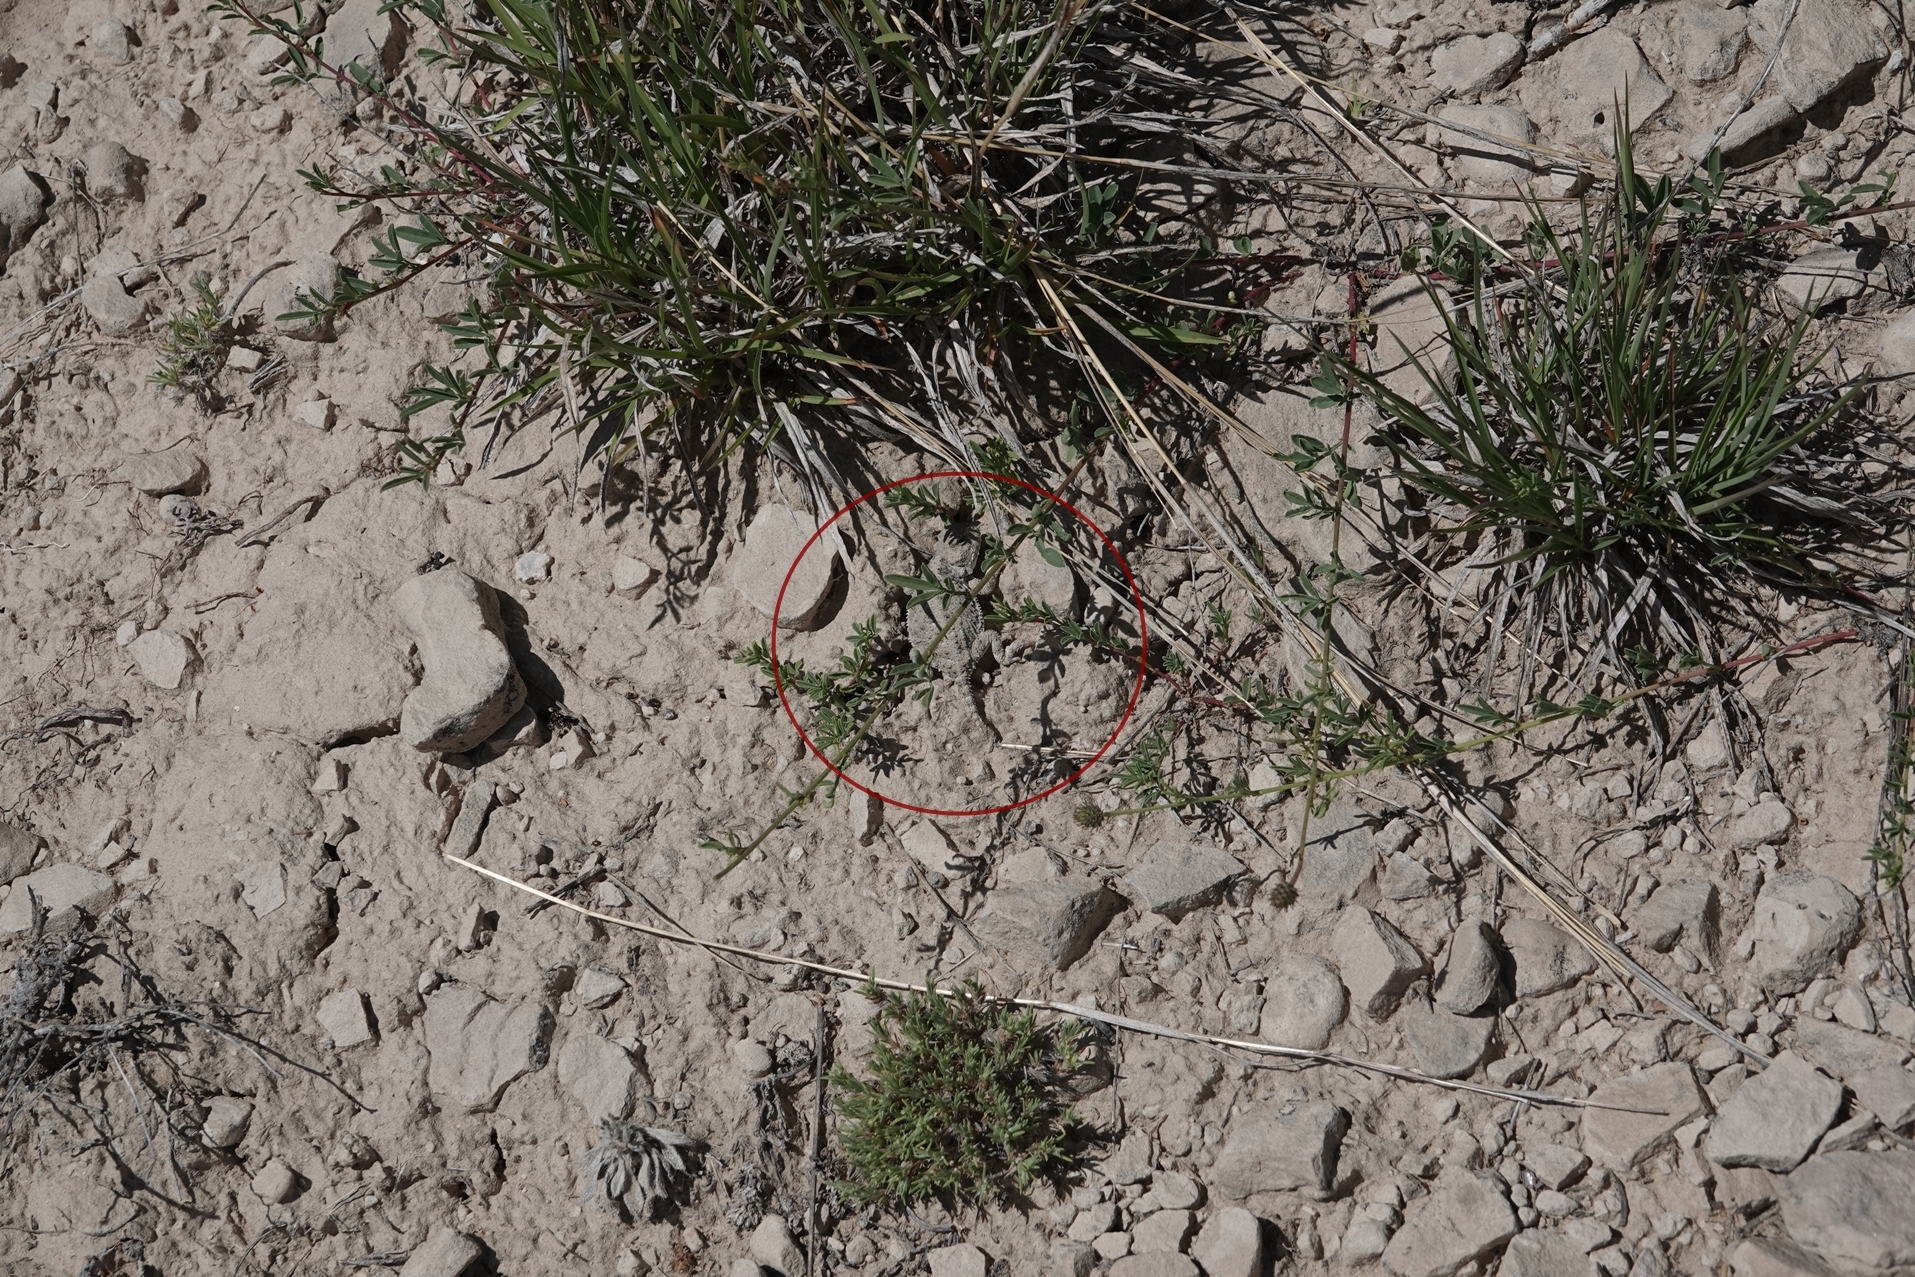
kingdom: Animalia
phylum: Chordata
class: Squamata
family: Phrynosomatidae
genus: Phrynosoma
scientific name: Phrynosoma hernandesi
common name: Greater short-horned lizard
